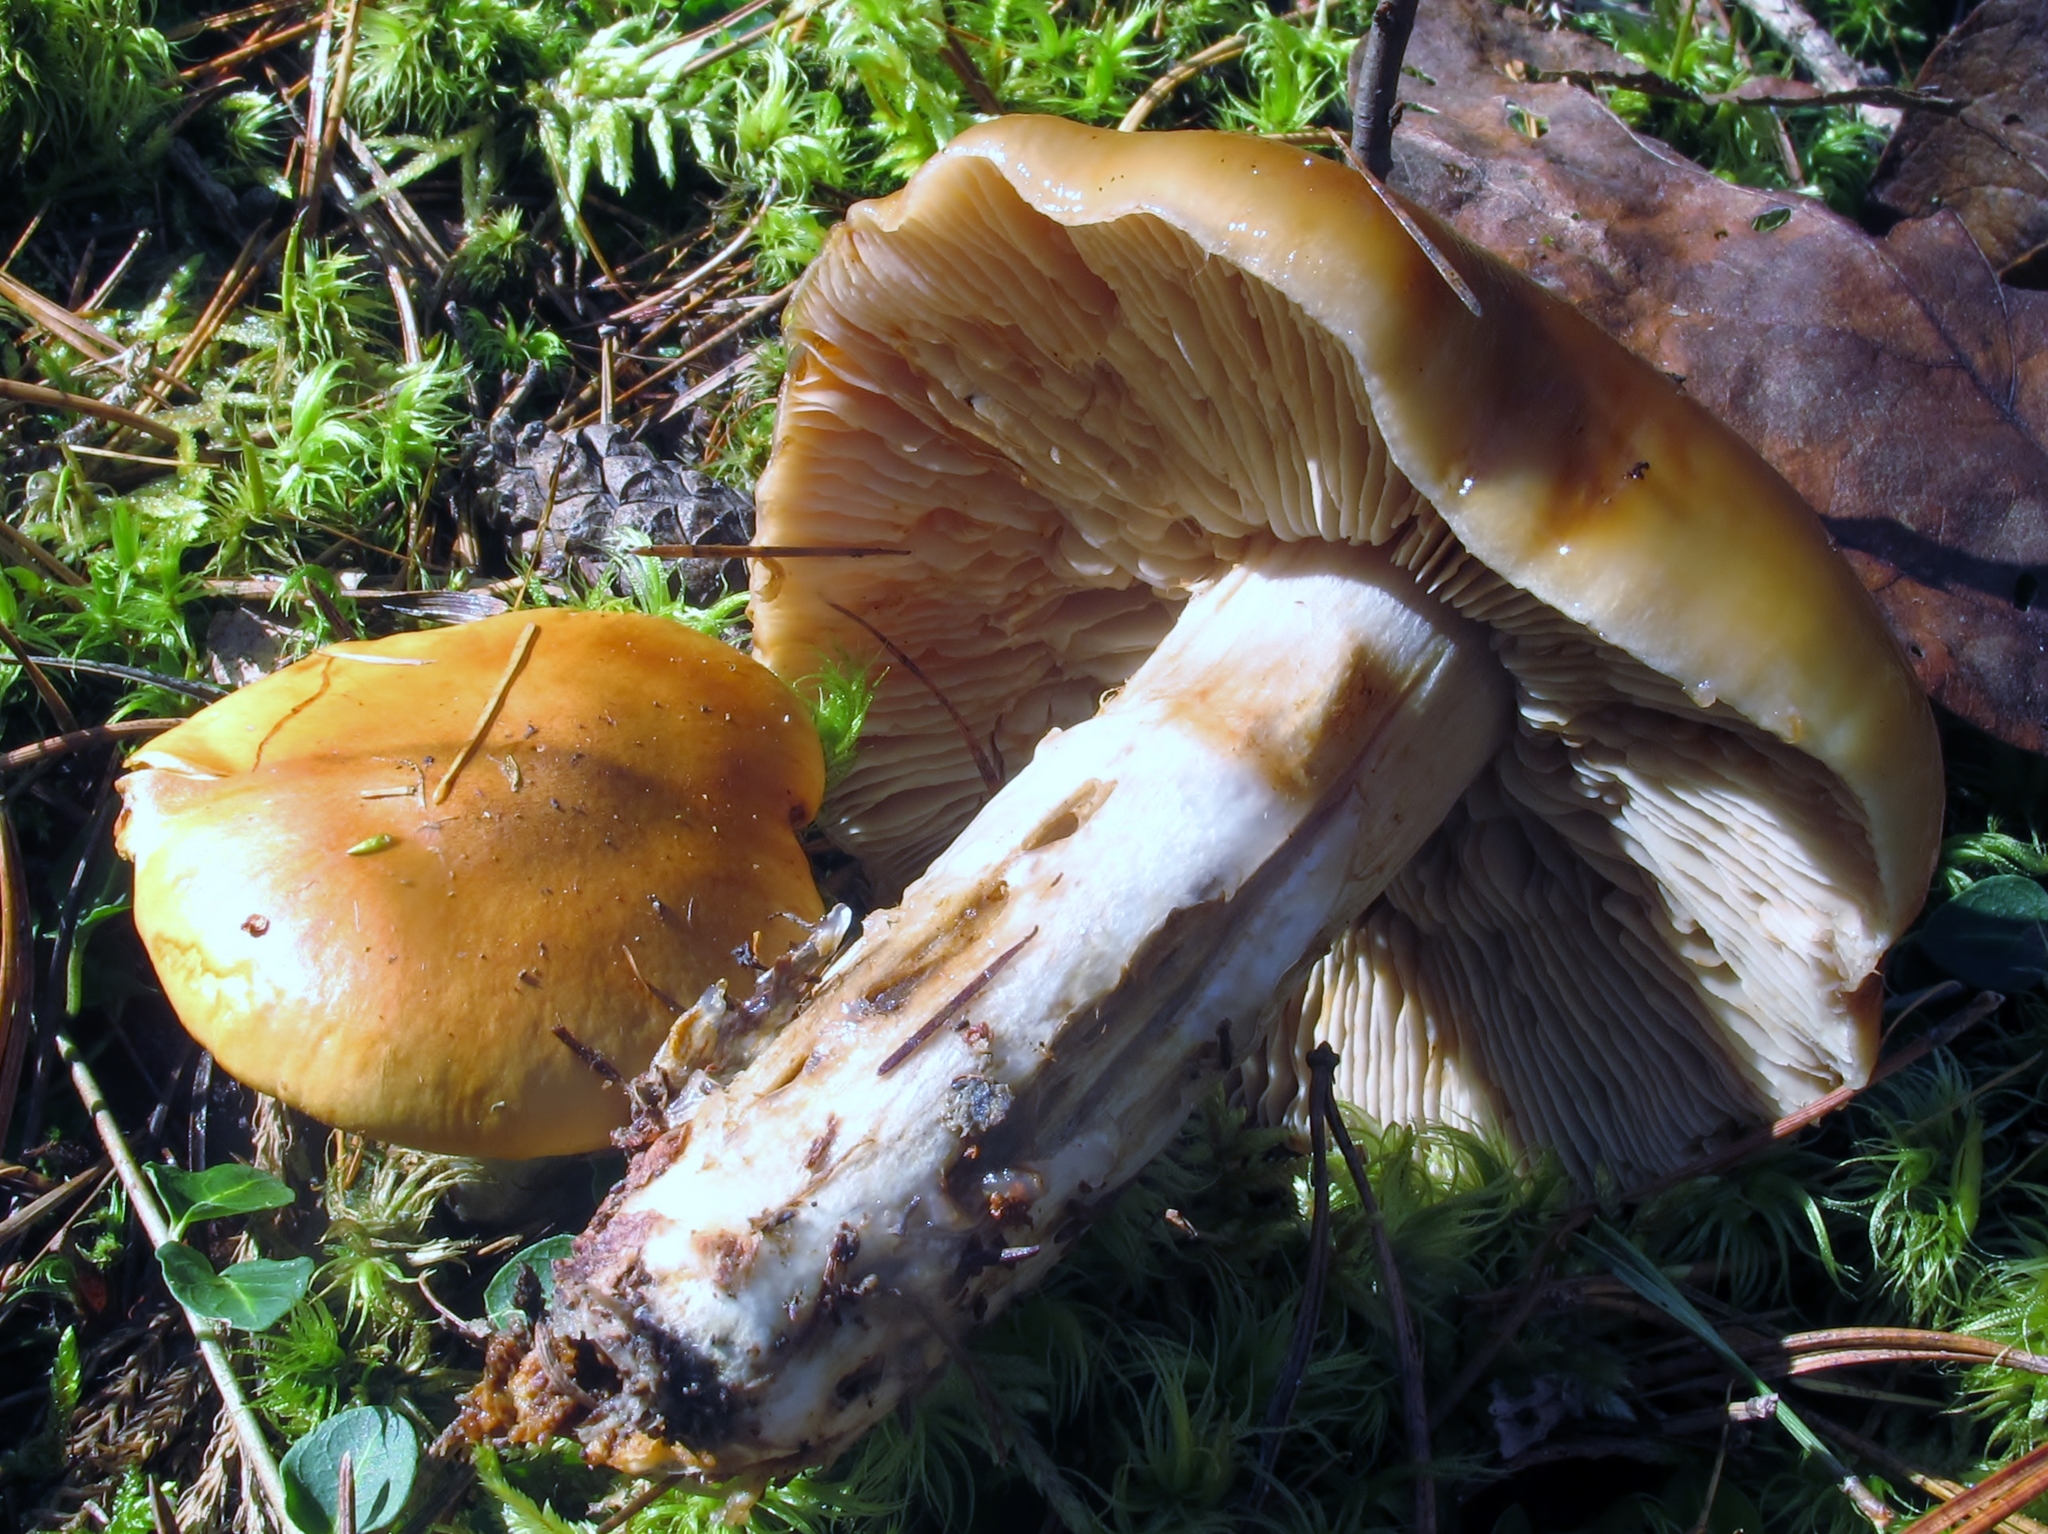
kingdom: Fungi
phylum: Basidiomycota
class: Agaricomycetes
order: Agaricales
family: Cortinariaceae
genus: Cortinarius
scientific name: Cortinarius mucosus
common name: Orange webcap
